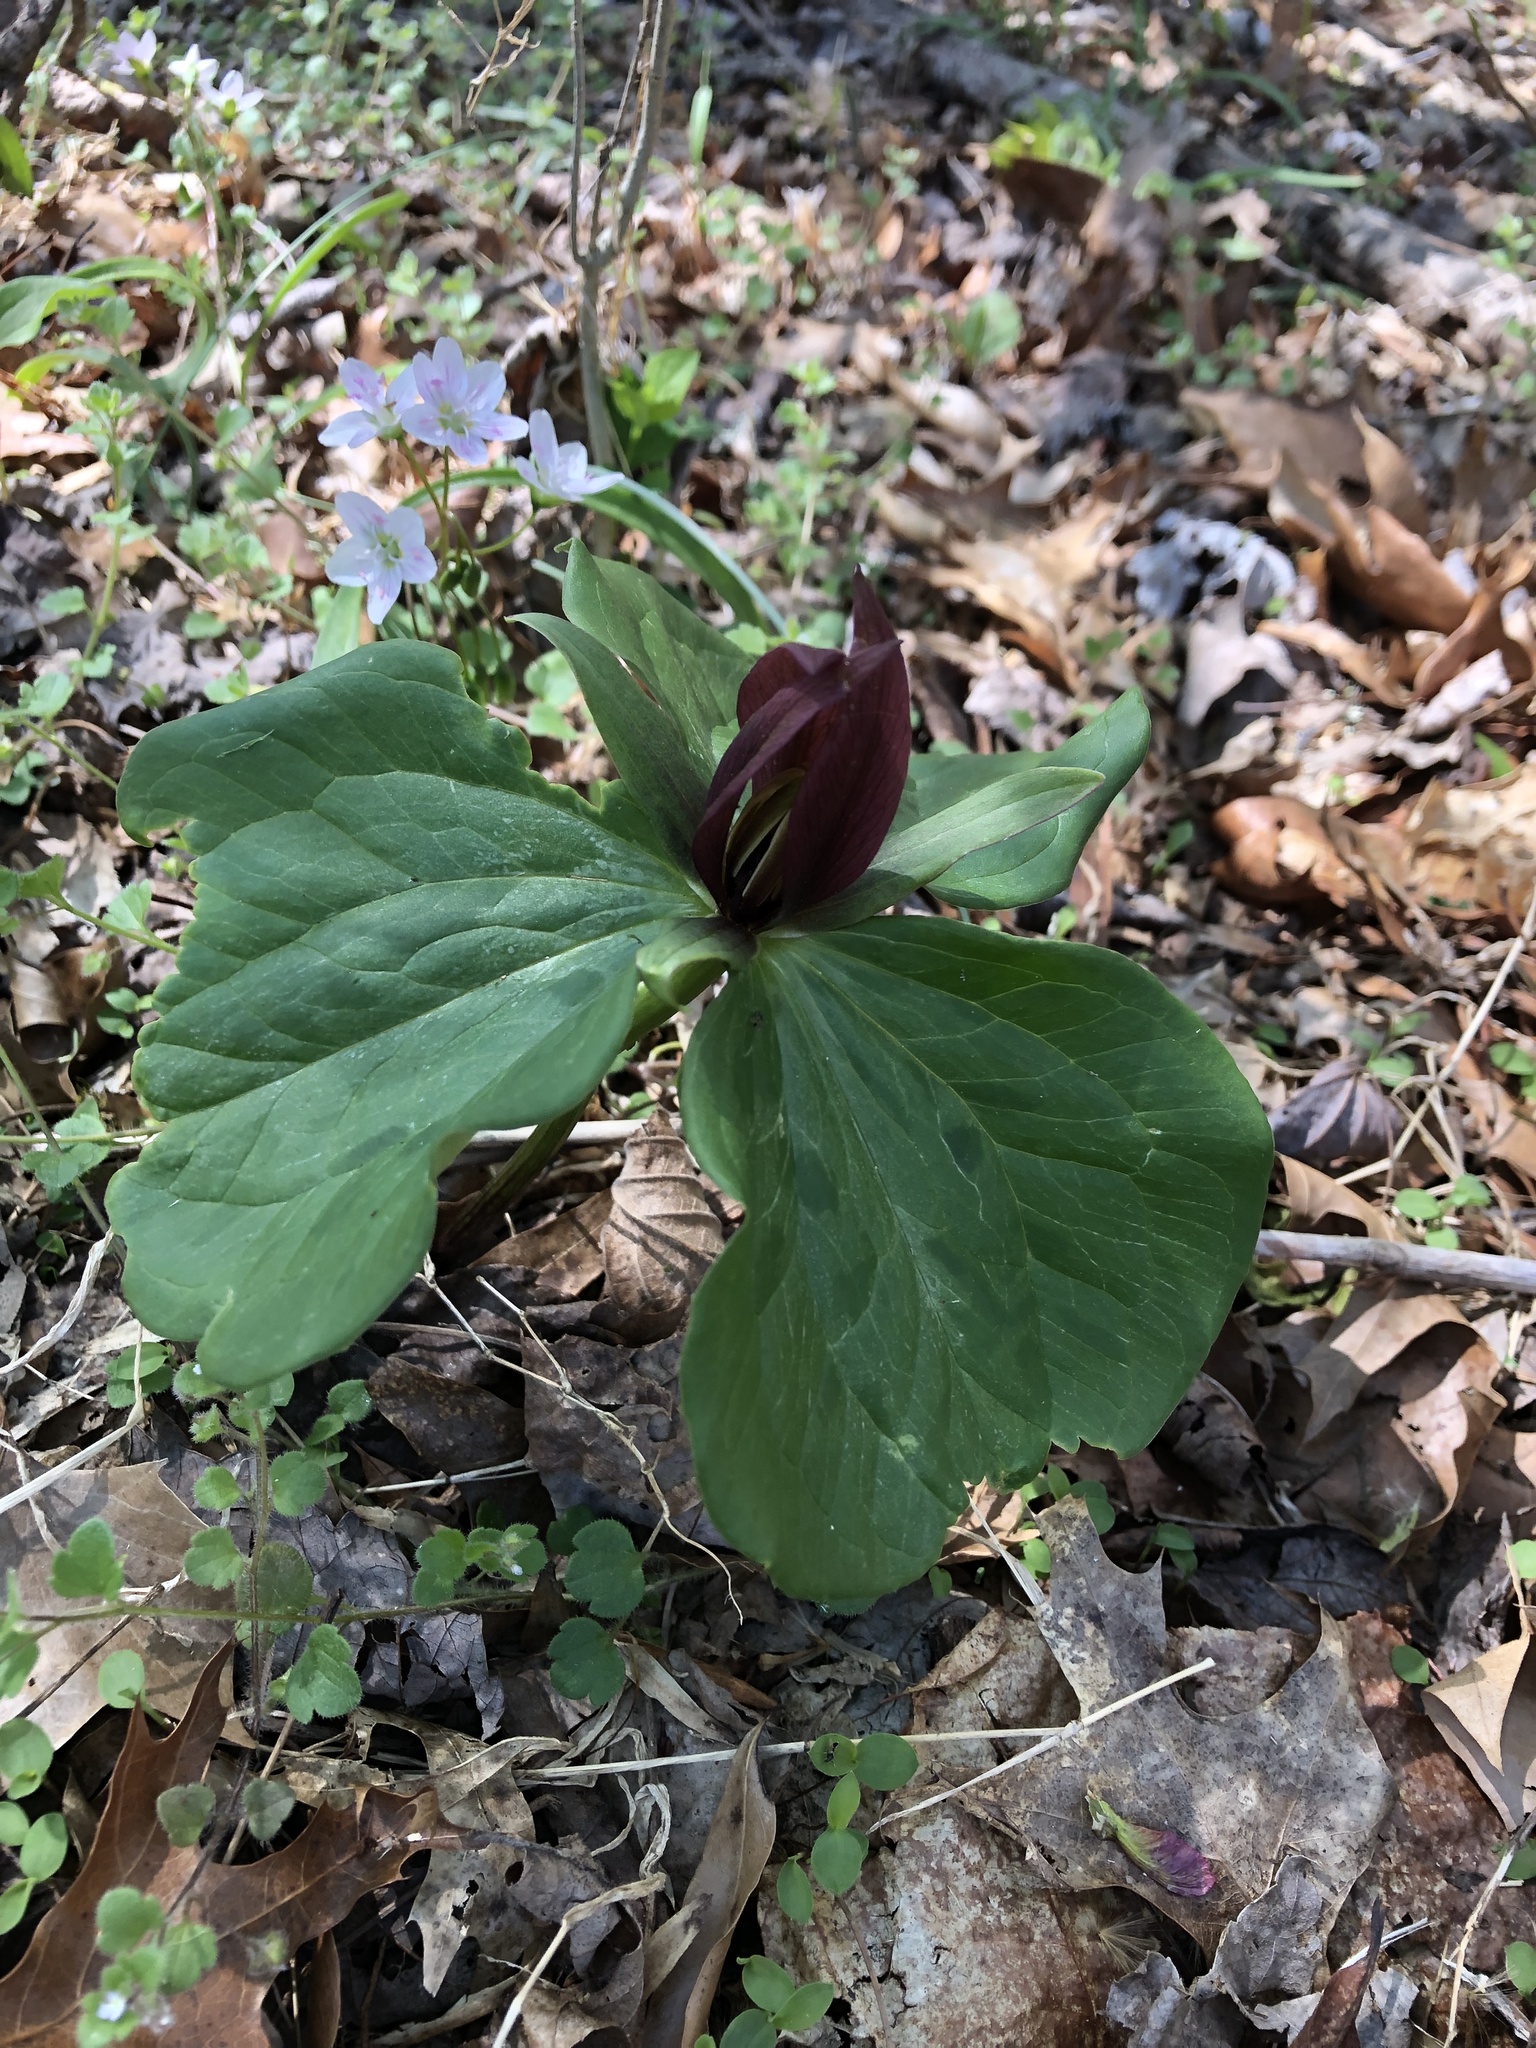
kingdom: Plantae
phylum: Tracheophyta
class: Liliopsida
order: Liliales
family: Melanthiaceae
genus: Trillium
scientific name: Trillium sessile
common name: Sessile trillium
